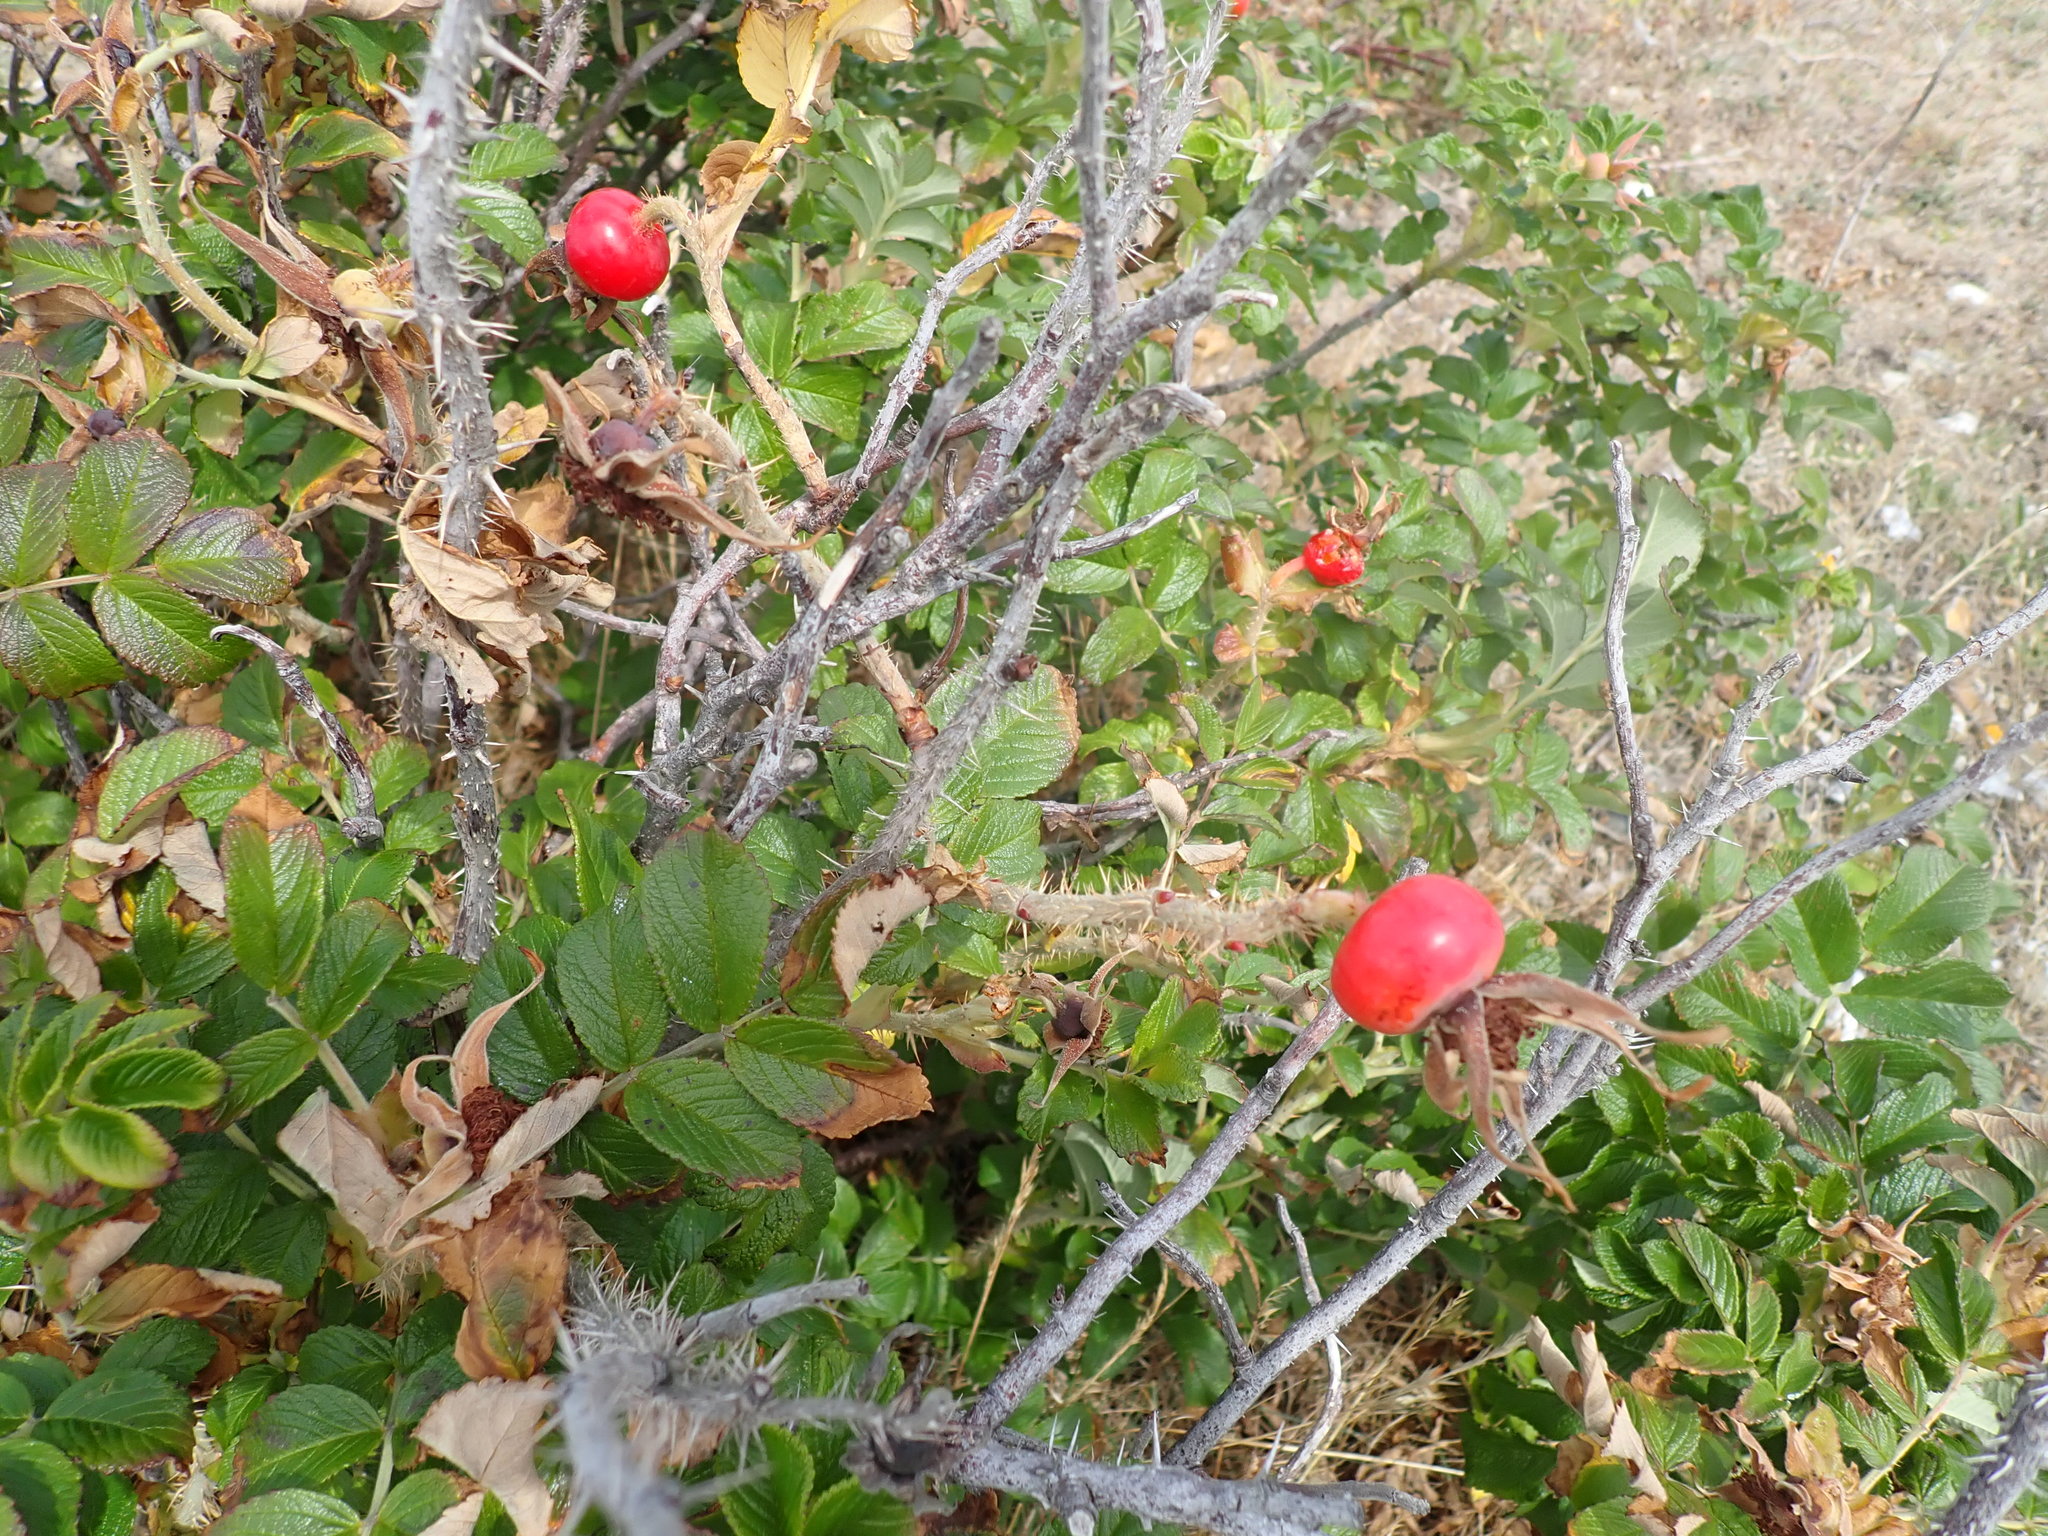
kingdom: Plantae
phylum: Tracheophyta
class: Magnoliopsida
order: Rosales
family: Rosaceae
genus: Rosa
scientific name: Rosa rugosa
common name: Japanese rose
